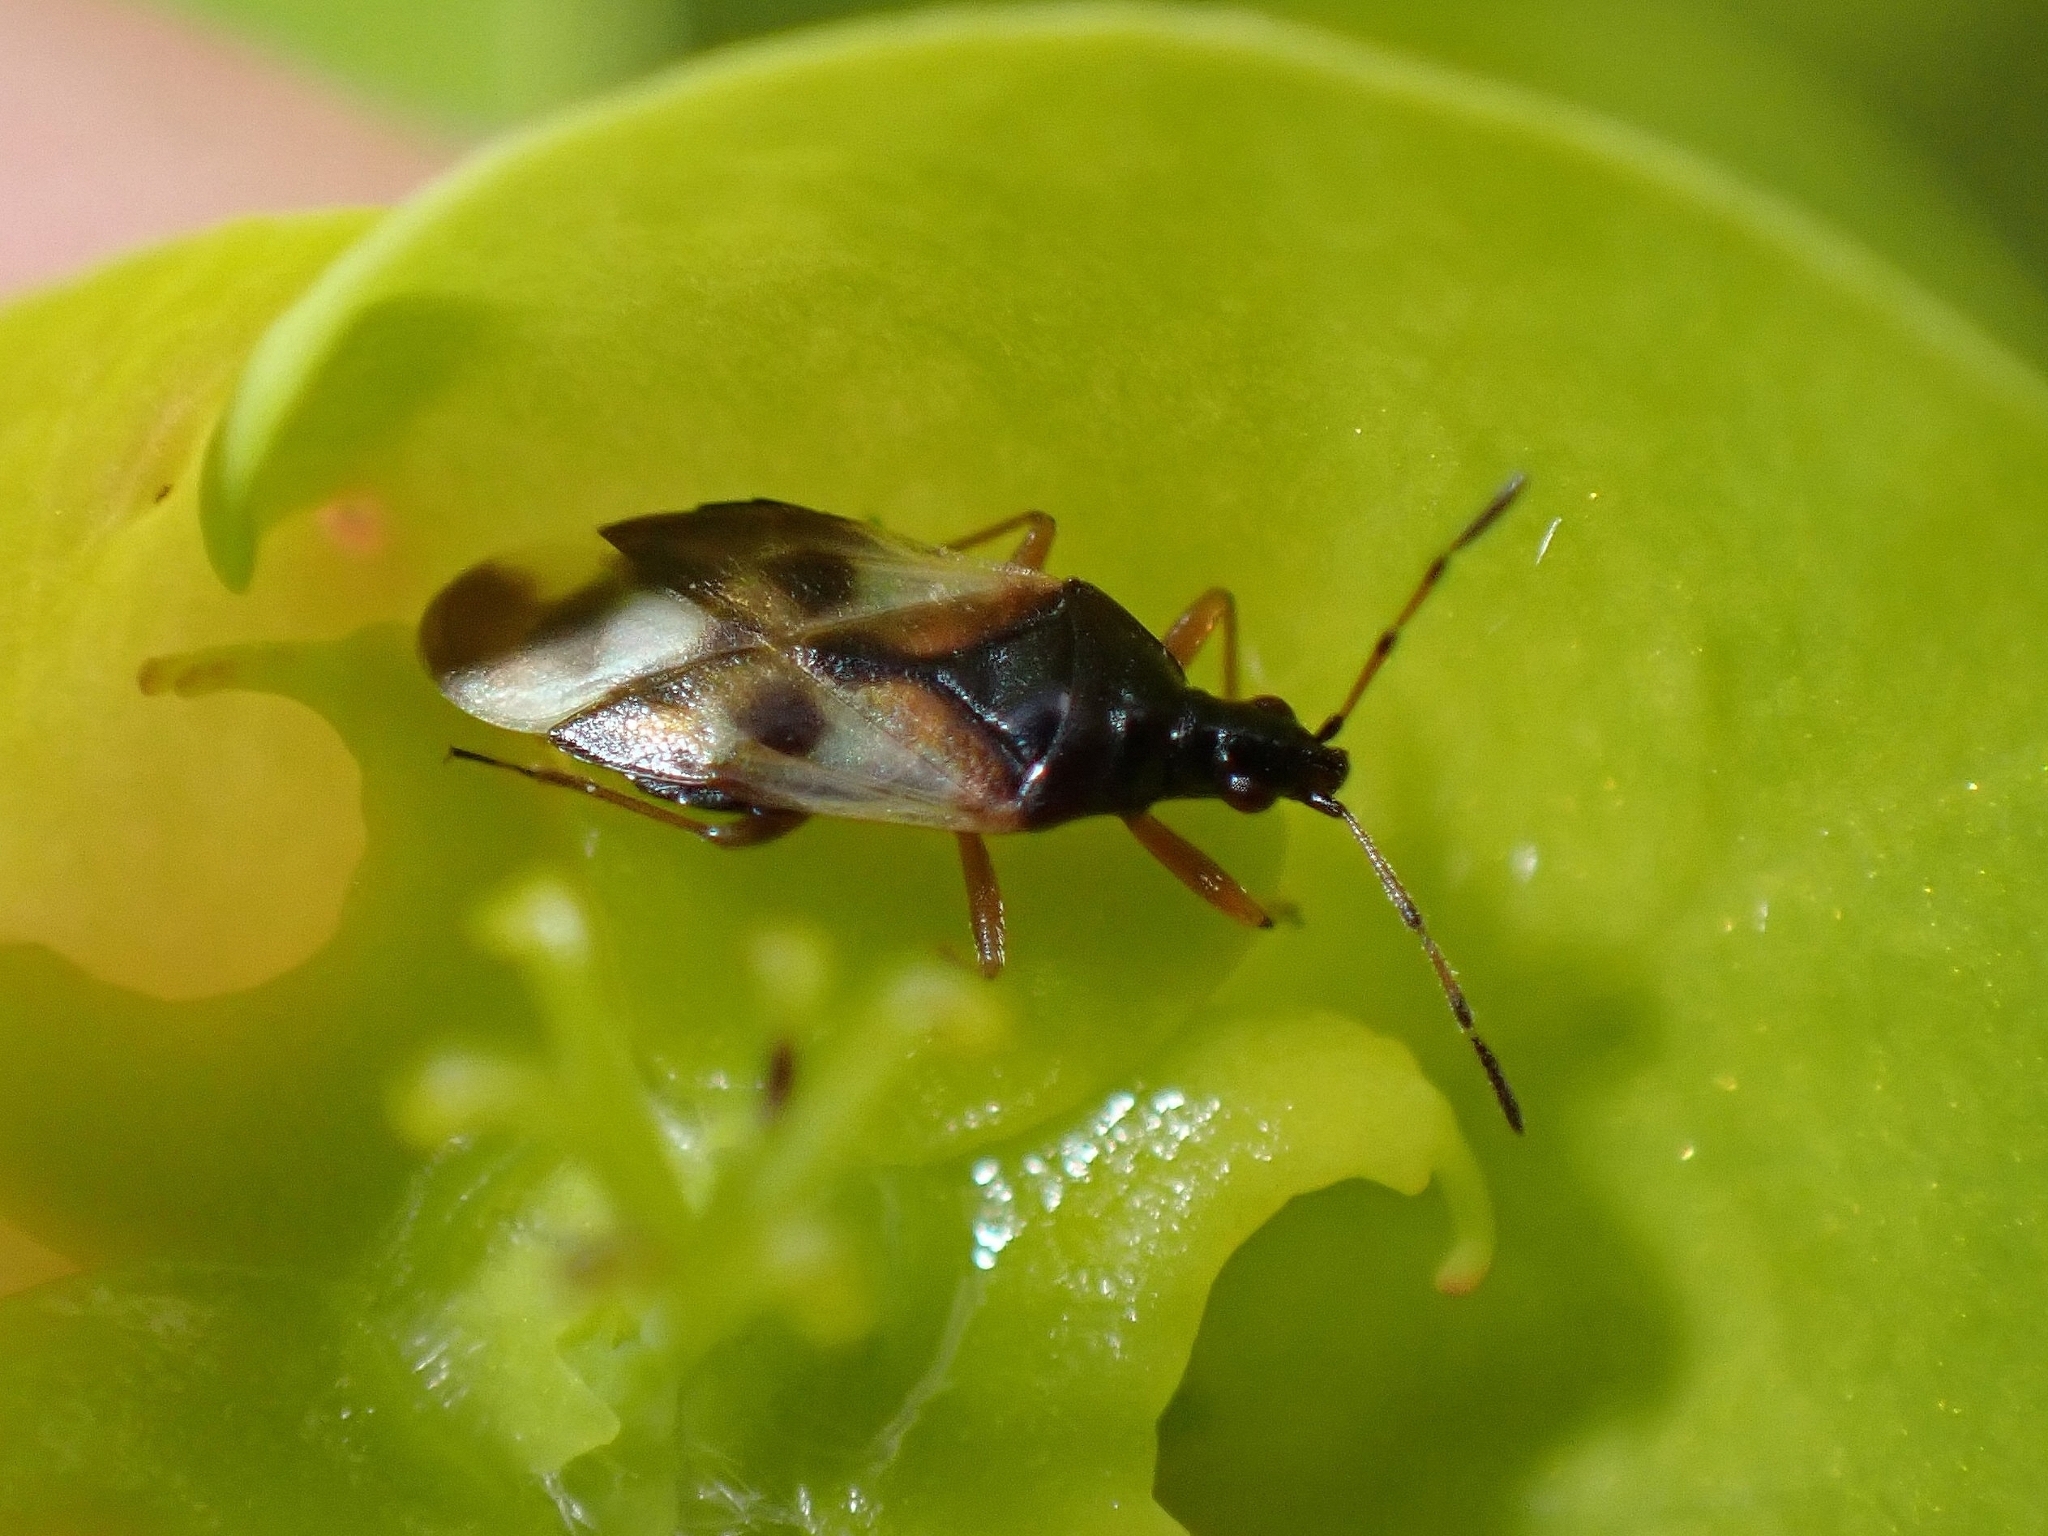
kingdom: Animalia
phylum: Arthropoda
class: Insecta
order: Hemiptera
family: Anthocoridae
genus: Anthocoris
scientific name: Anthocoris nemorum
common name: Minute pirate bug
